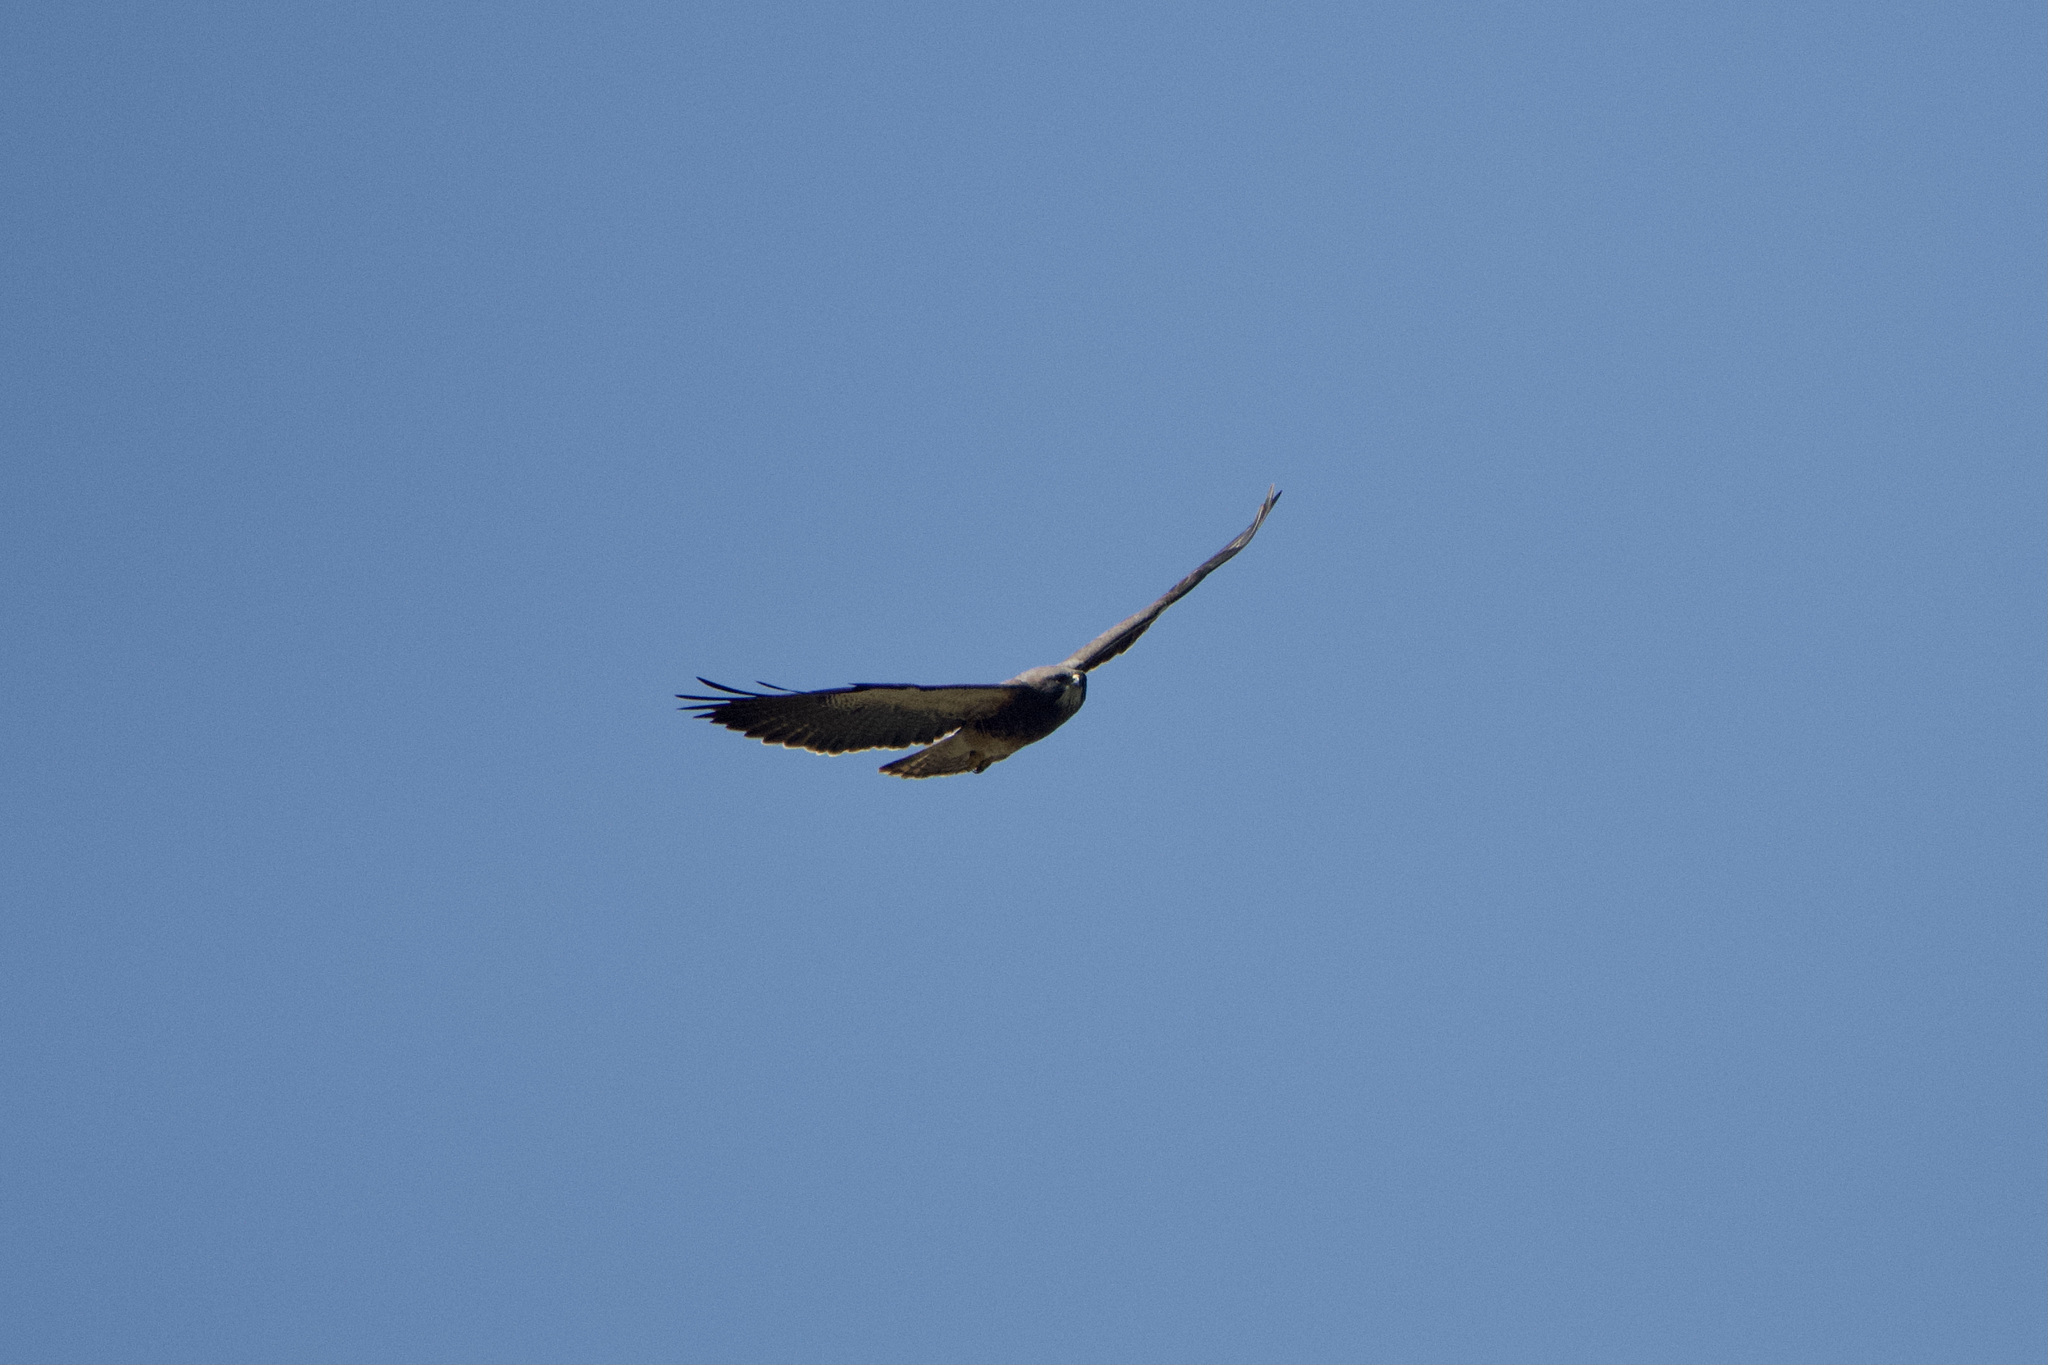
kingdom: Animalia
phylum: Chordata
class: Aves
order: Accipitriformes
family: Accipitridae
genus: Buteo
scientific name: Buteo swainsoni
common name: Swainson's hawk
